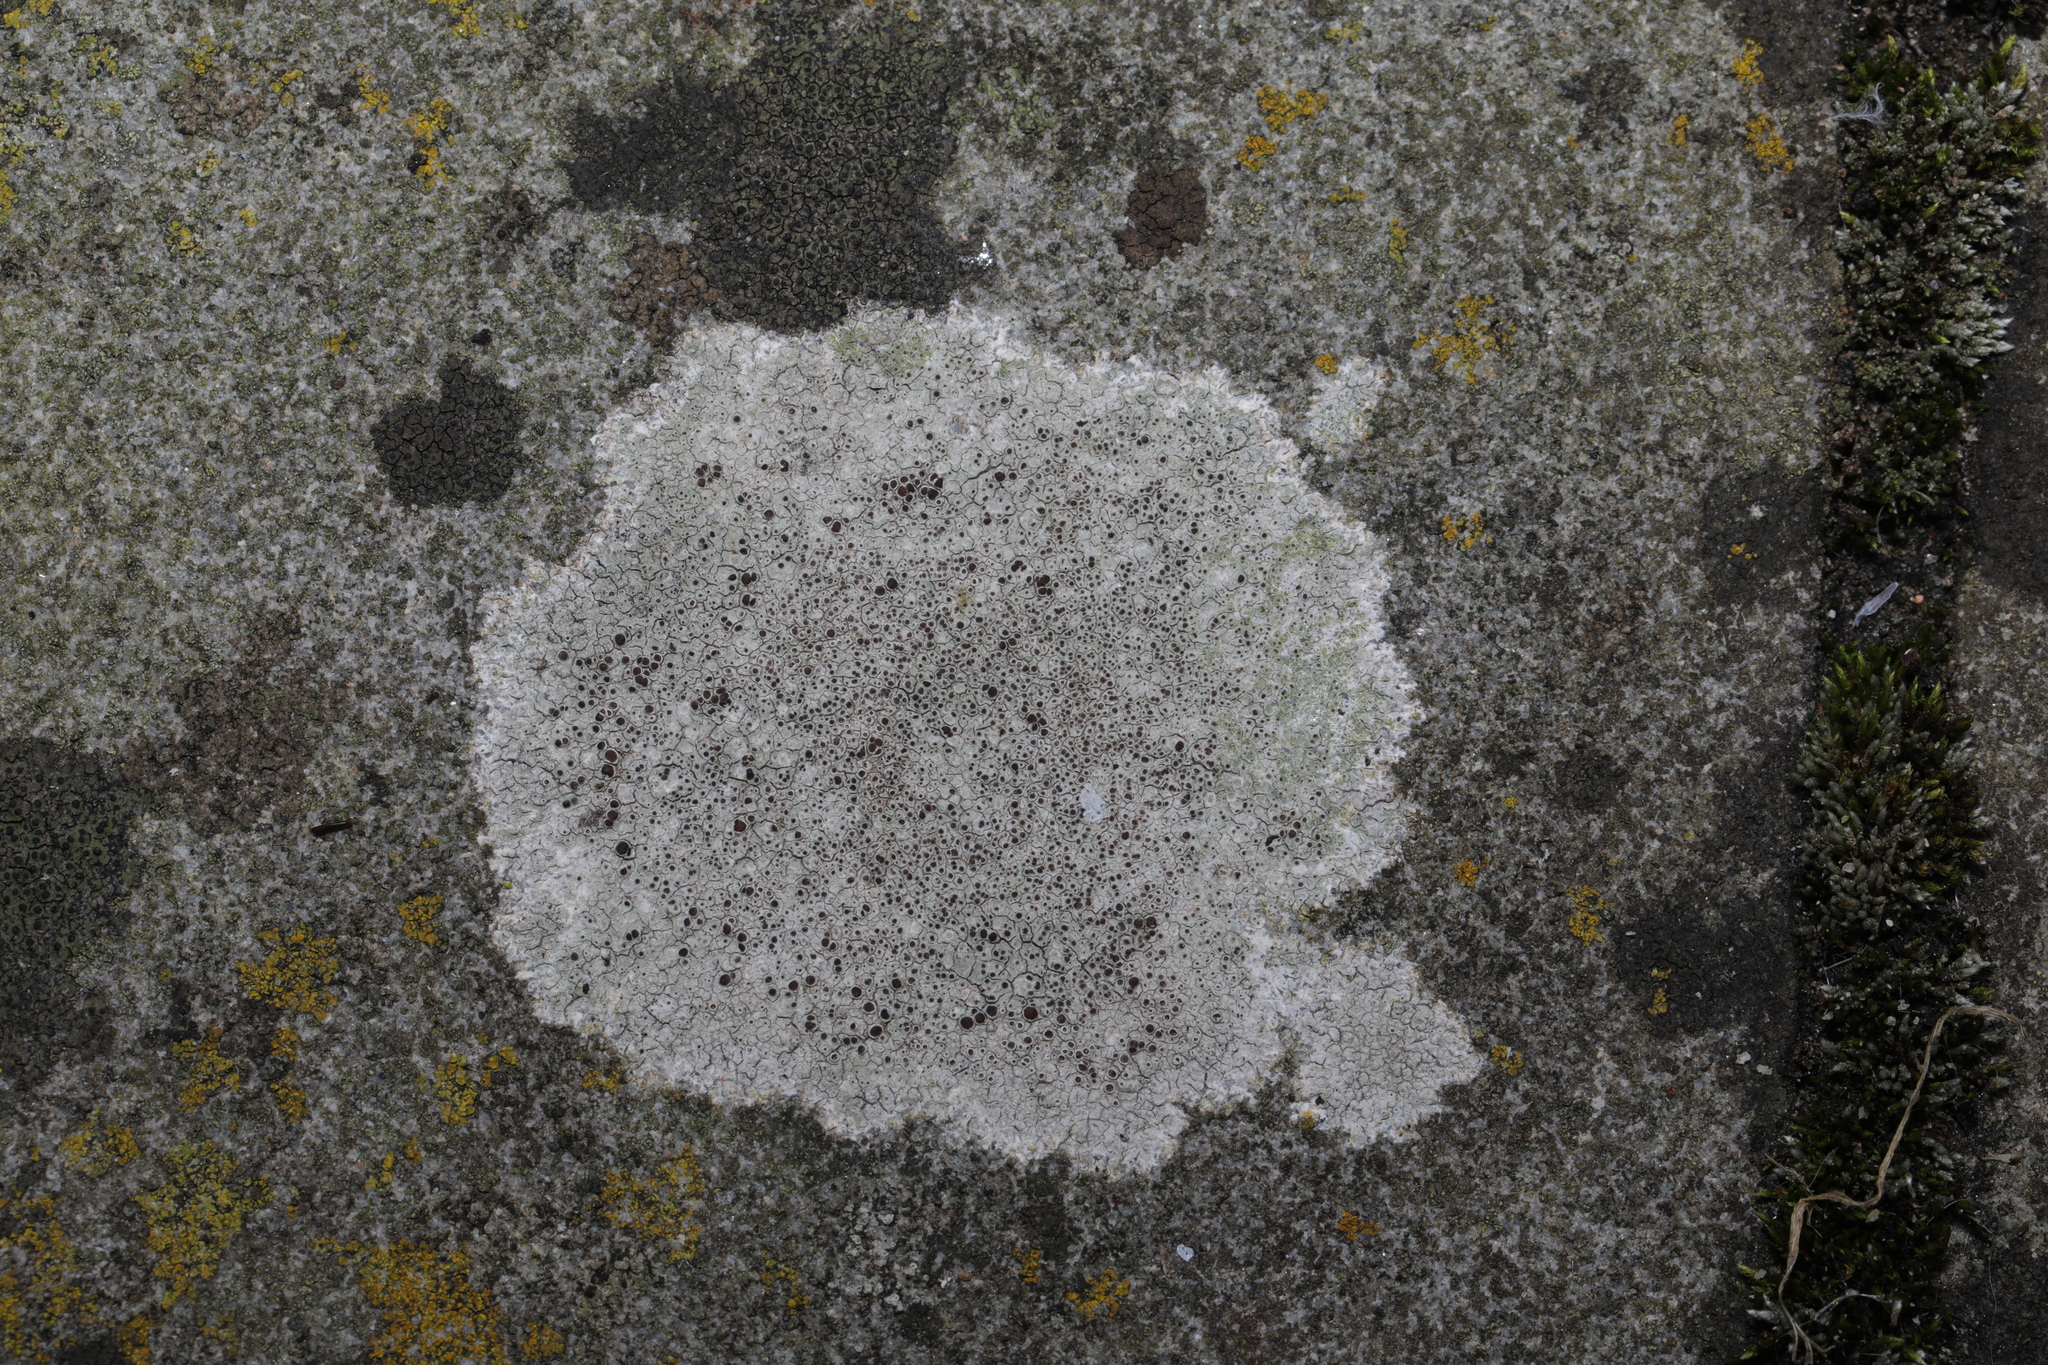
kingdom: Fungi
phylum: Ascomycota
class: Lecanoromycetes
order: Lecanorales
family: Lecanoraceae
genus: Lecanora
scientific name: Lecanora campestris
